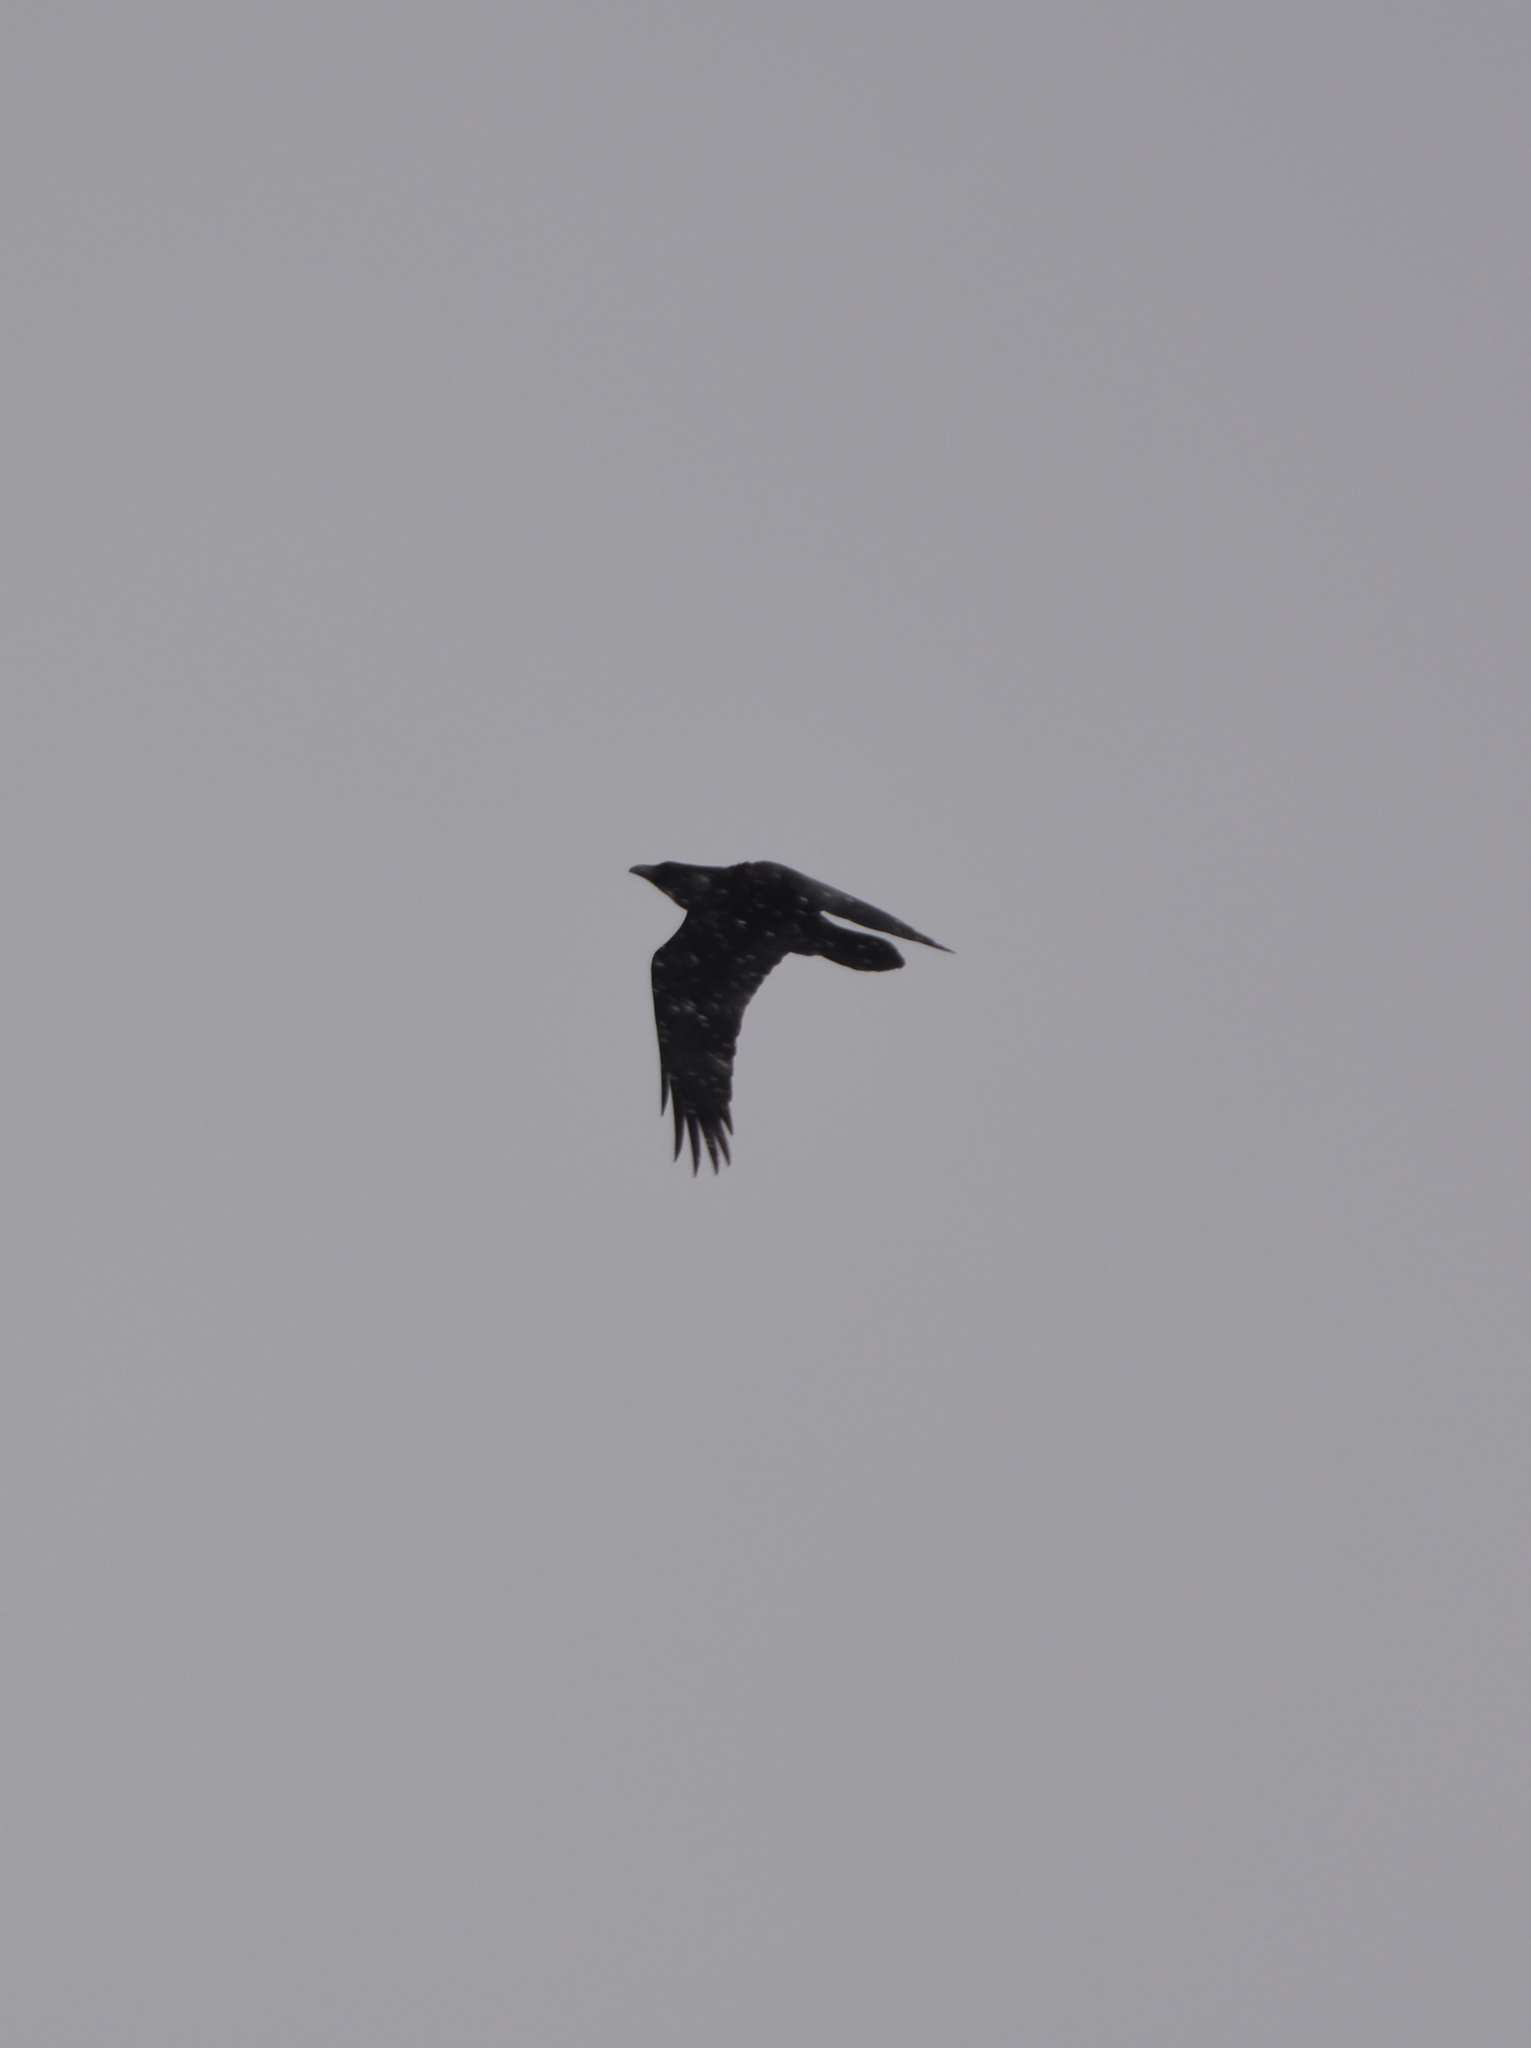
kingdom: Animalia
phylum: Chordata
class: Aves
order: Passeriformes
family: Corvidae
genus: Corvus
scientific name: Corvus corax
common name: Common raven
